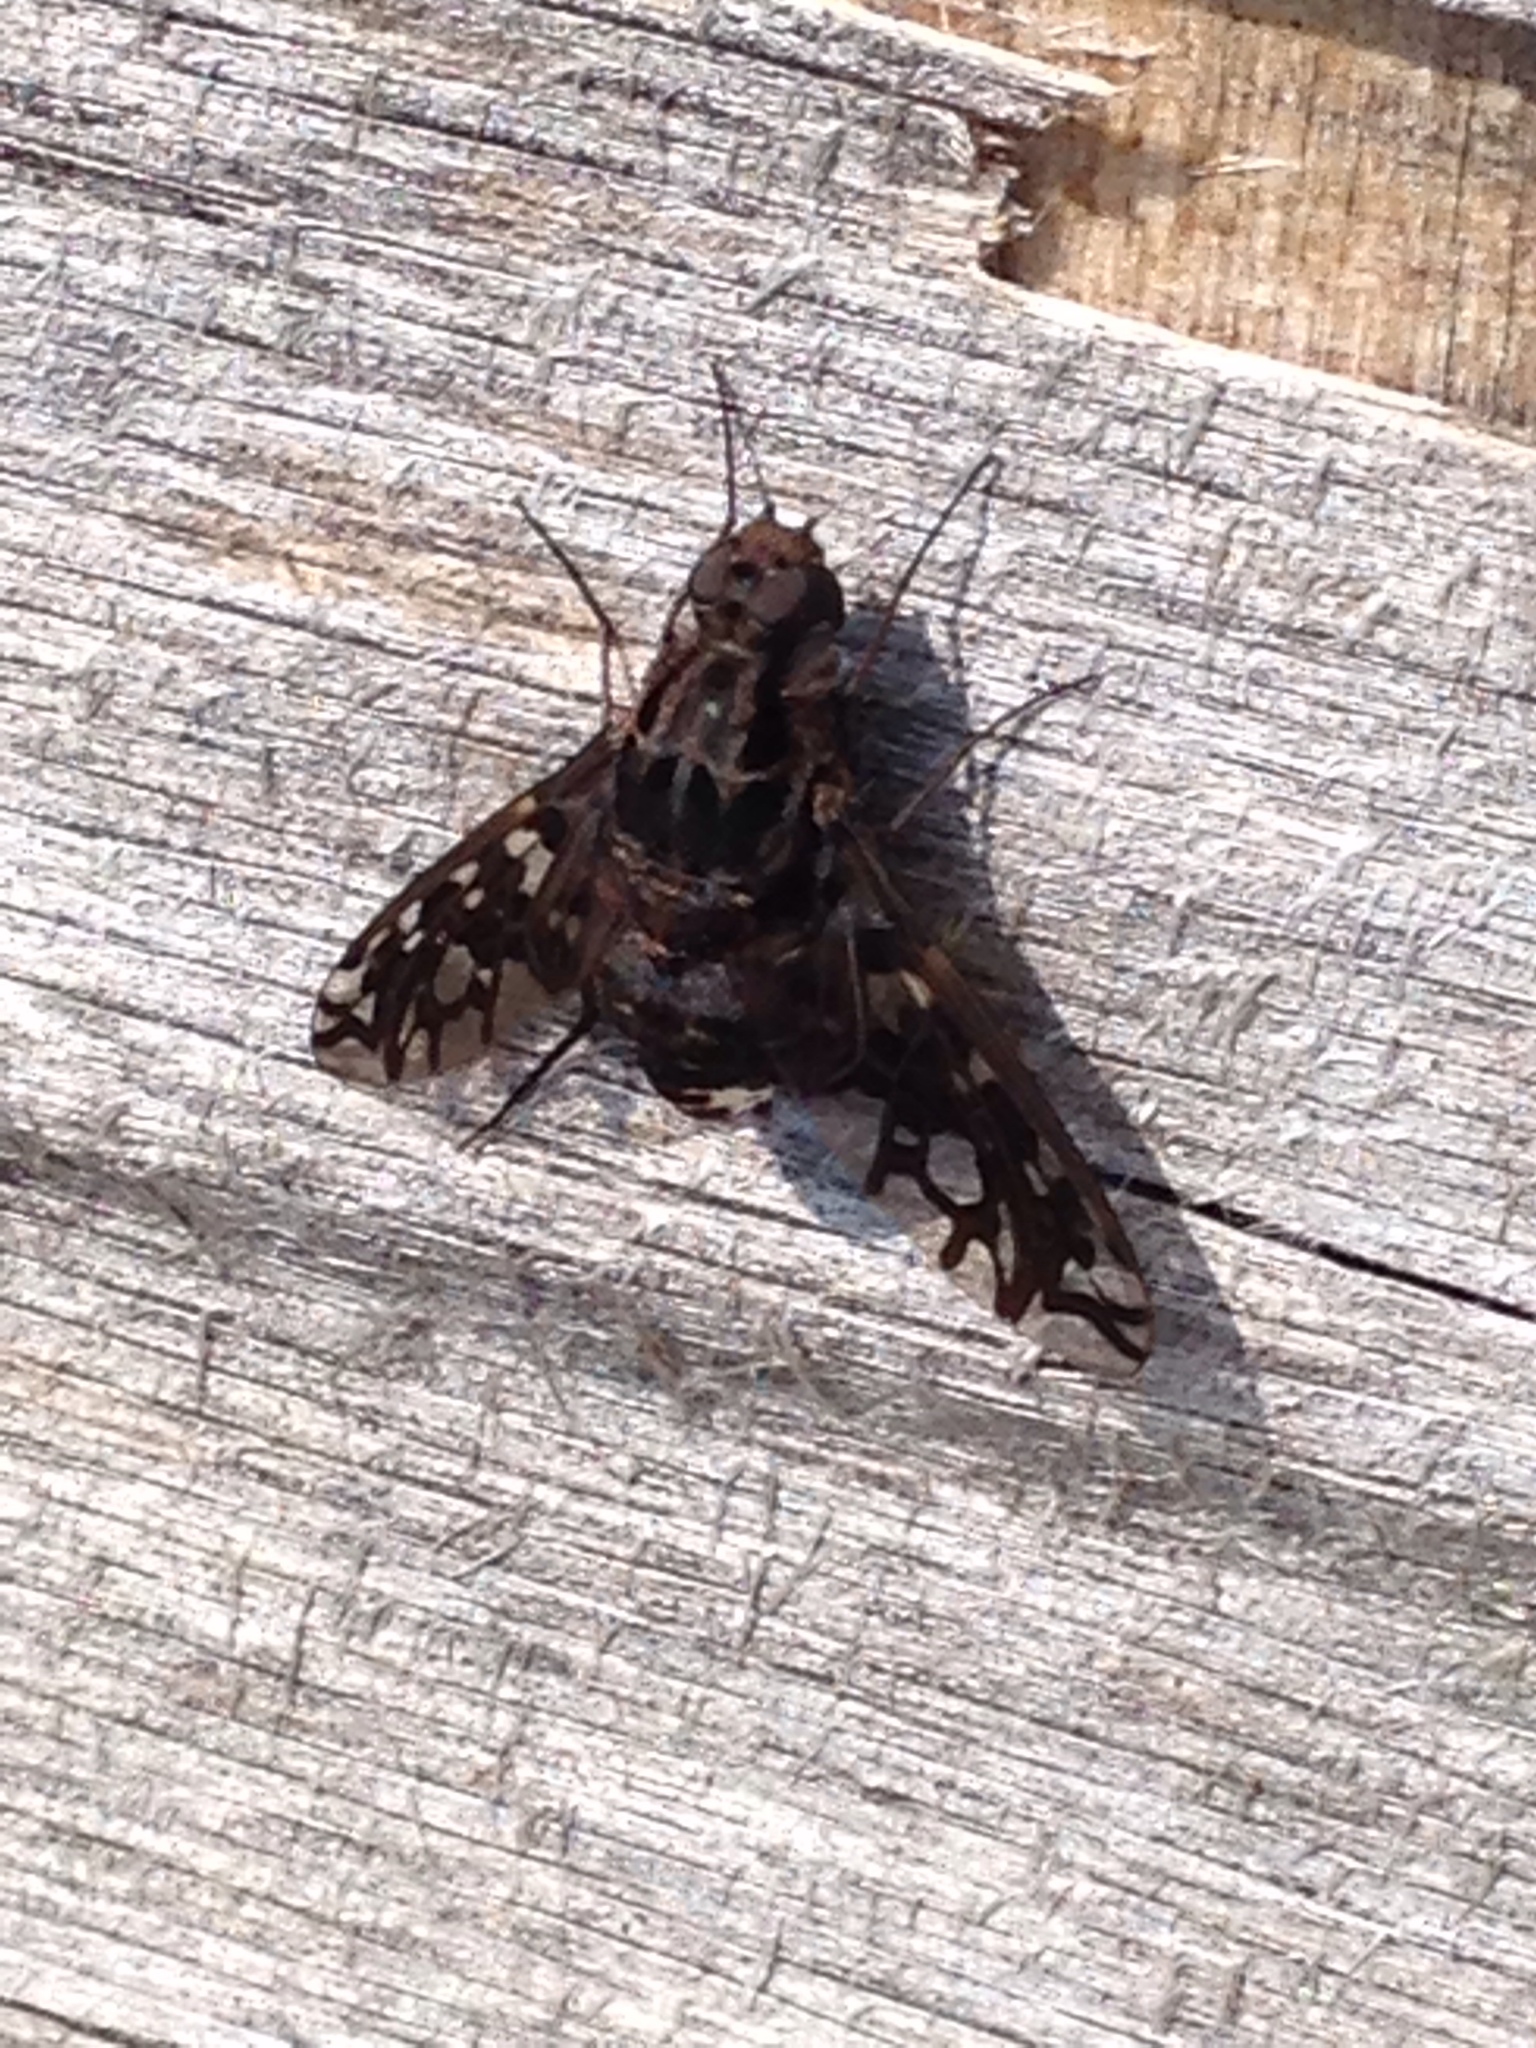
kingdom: Animalia
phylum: Arthropoda
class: Insecta
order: Diptera
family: Bombyliidae
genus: Xenox
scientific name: Xenox tigrinus
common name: Tiger bee fly
